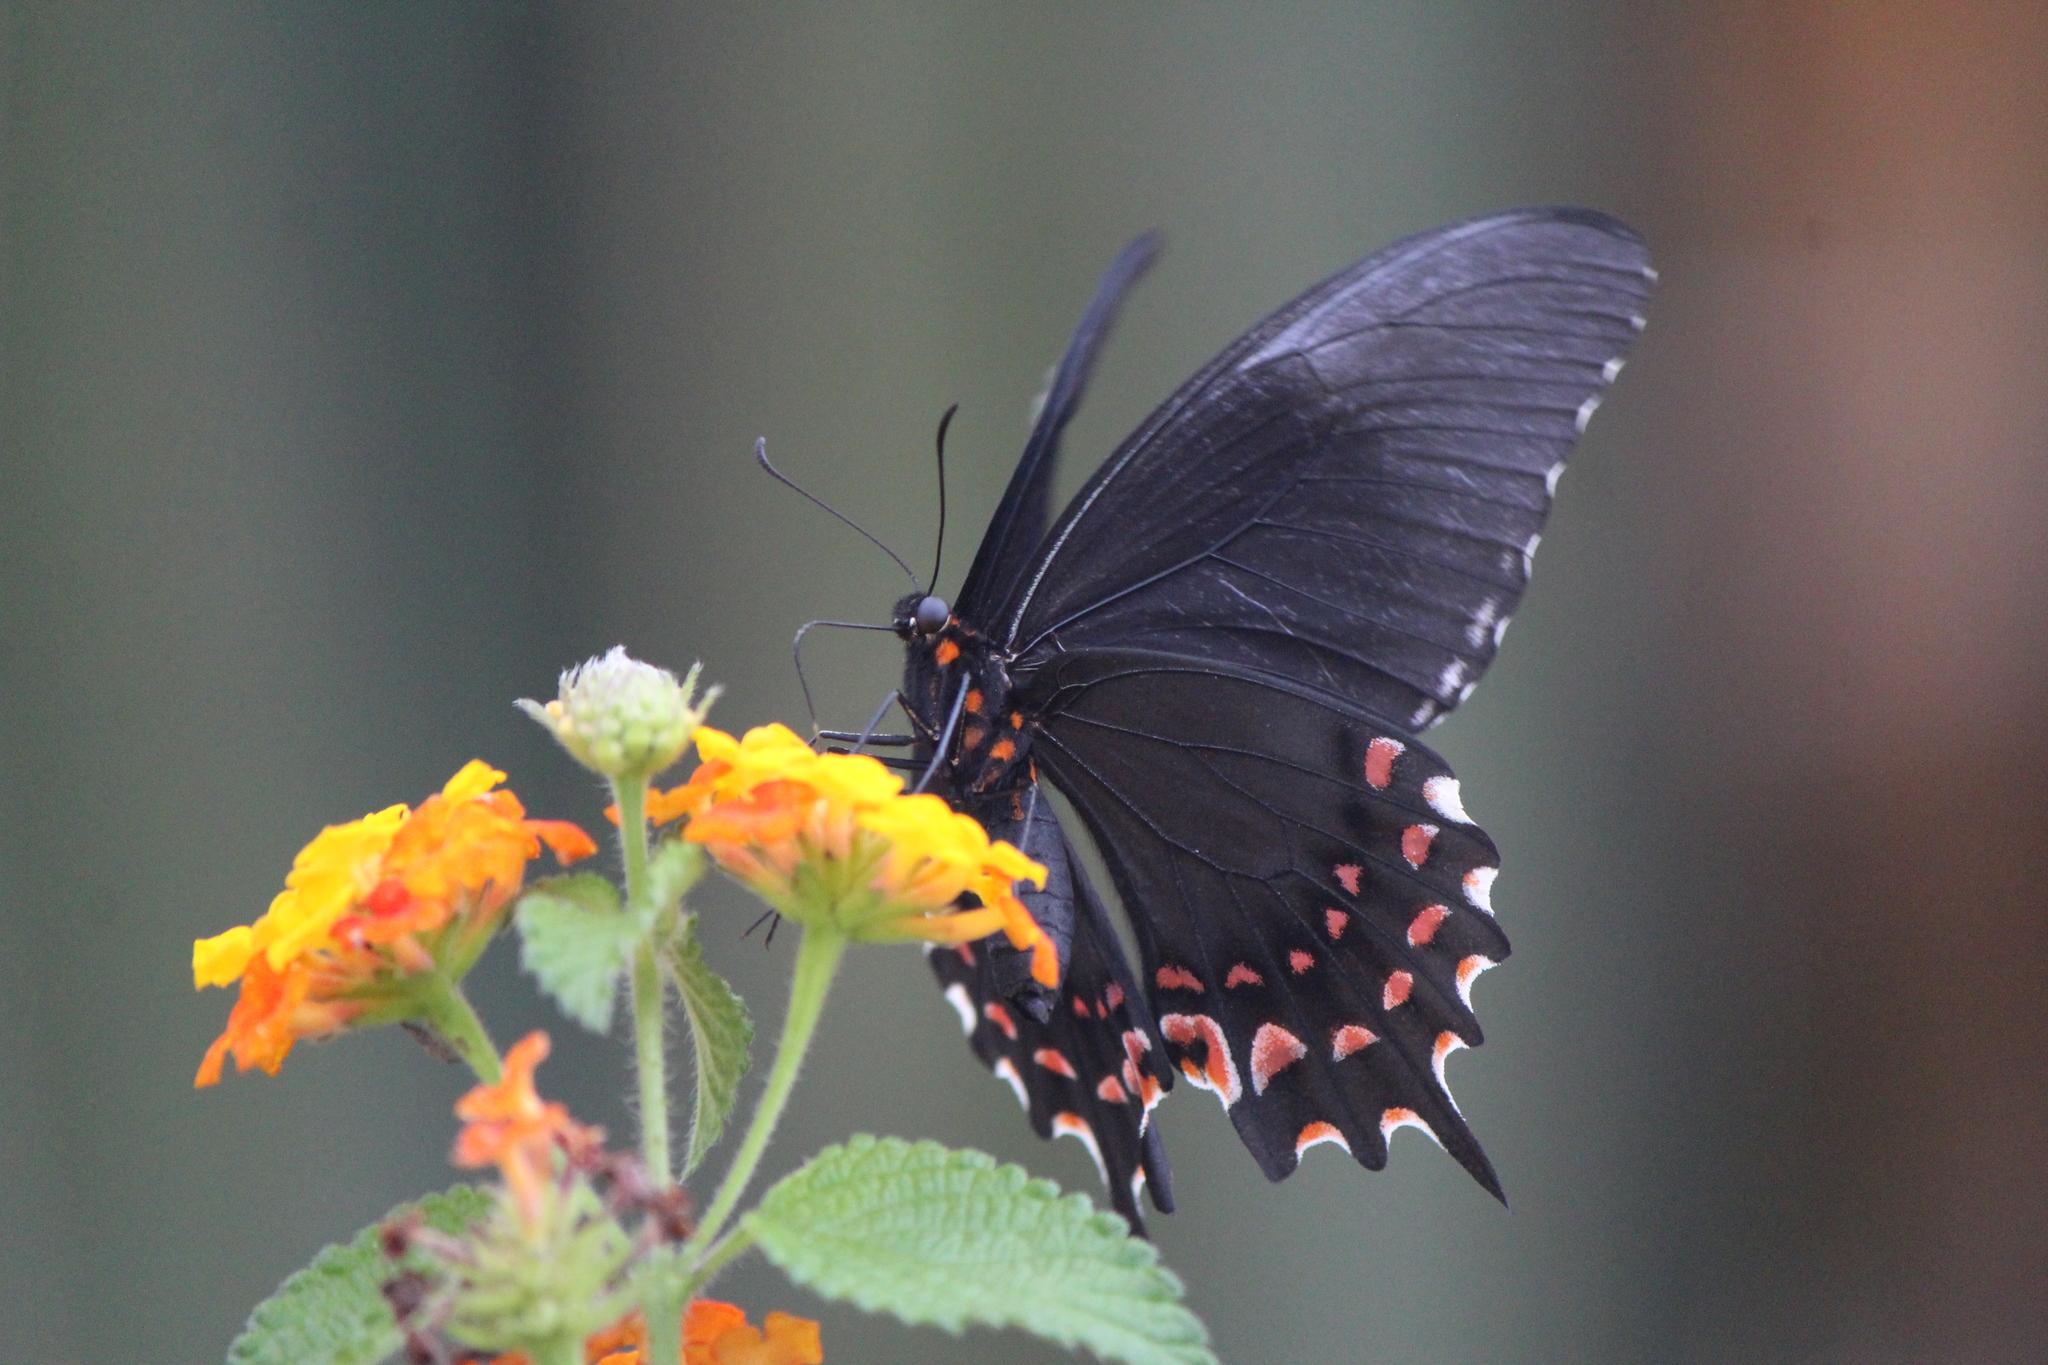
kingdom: Animalia
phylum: Arthropoda
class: Insecta
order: Lepidoptera
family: Papilionidae
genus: Heraclides
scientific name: Heraclides rogeri
